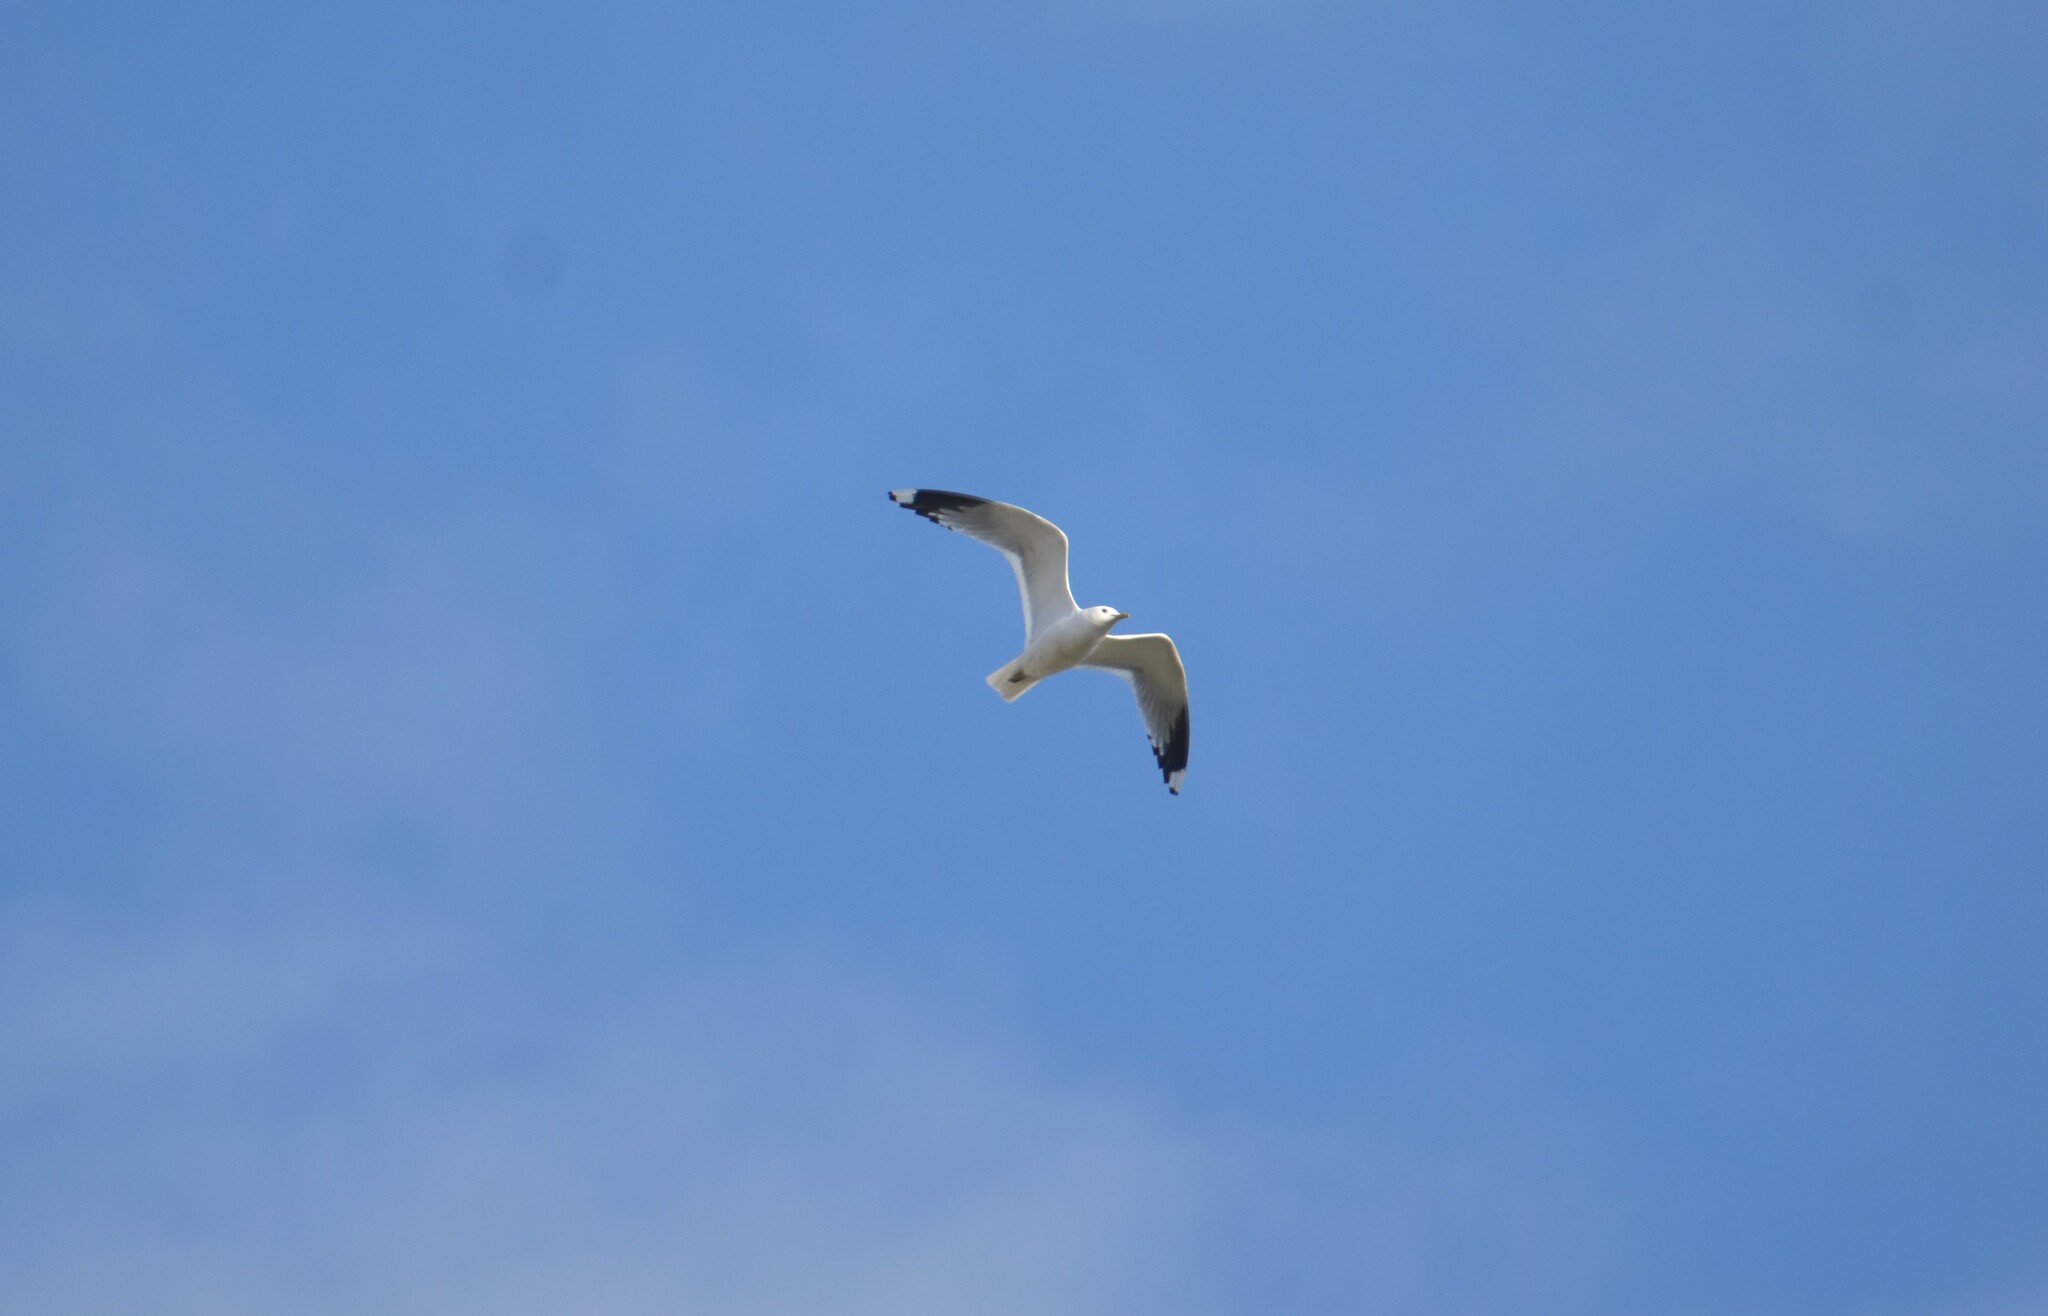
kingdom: Animalia
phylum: Chordata
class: Aves
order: Charadriiformes
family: Laridae
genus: Larus
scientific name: Larus canus
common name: Mew gull
